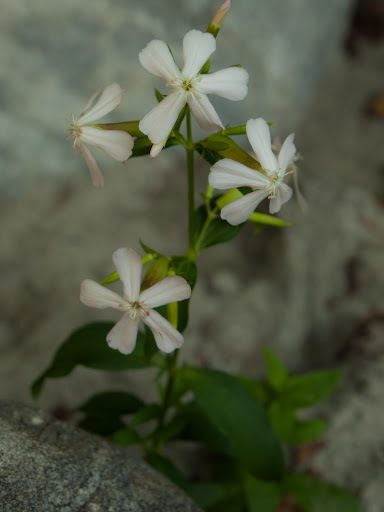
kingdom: Plantae
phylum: Tracheophyta
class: Magnoliopsida
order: Caryophyllales
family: Caryophyllaceae
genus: Saponaria
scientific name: Saponaria officinalis
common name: Soapwort
